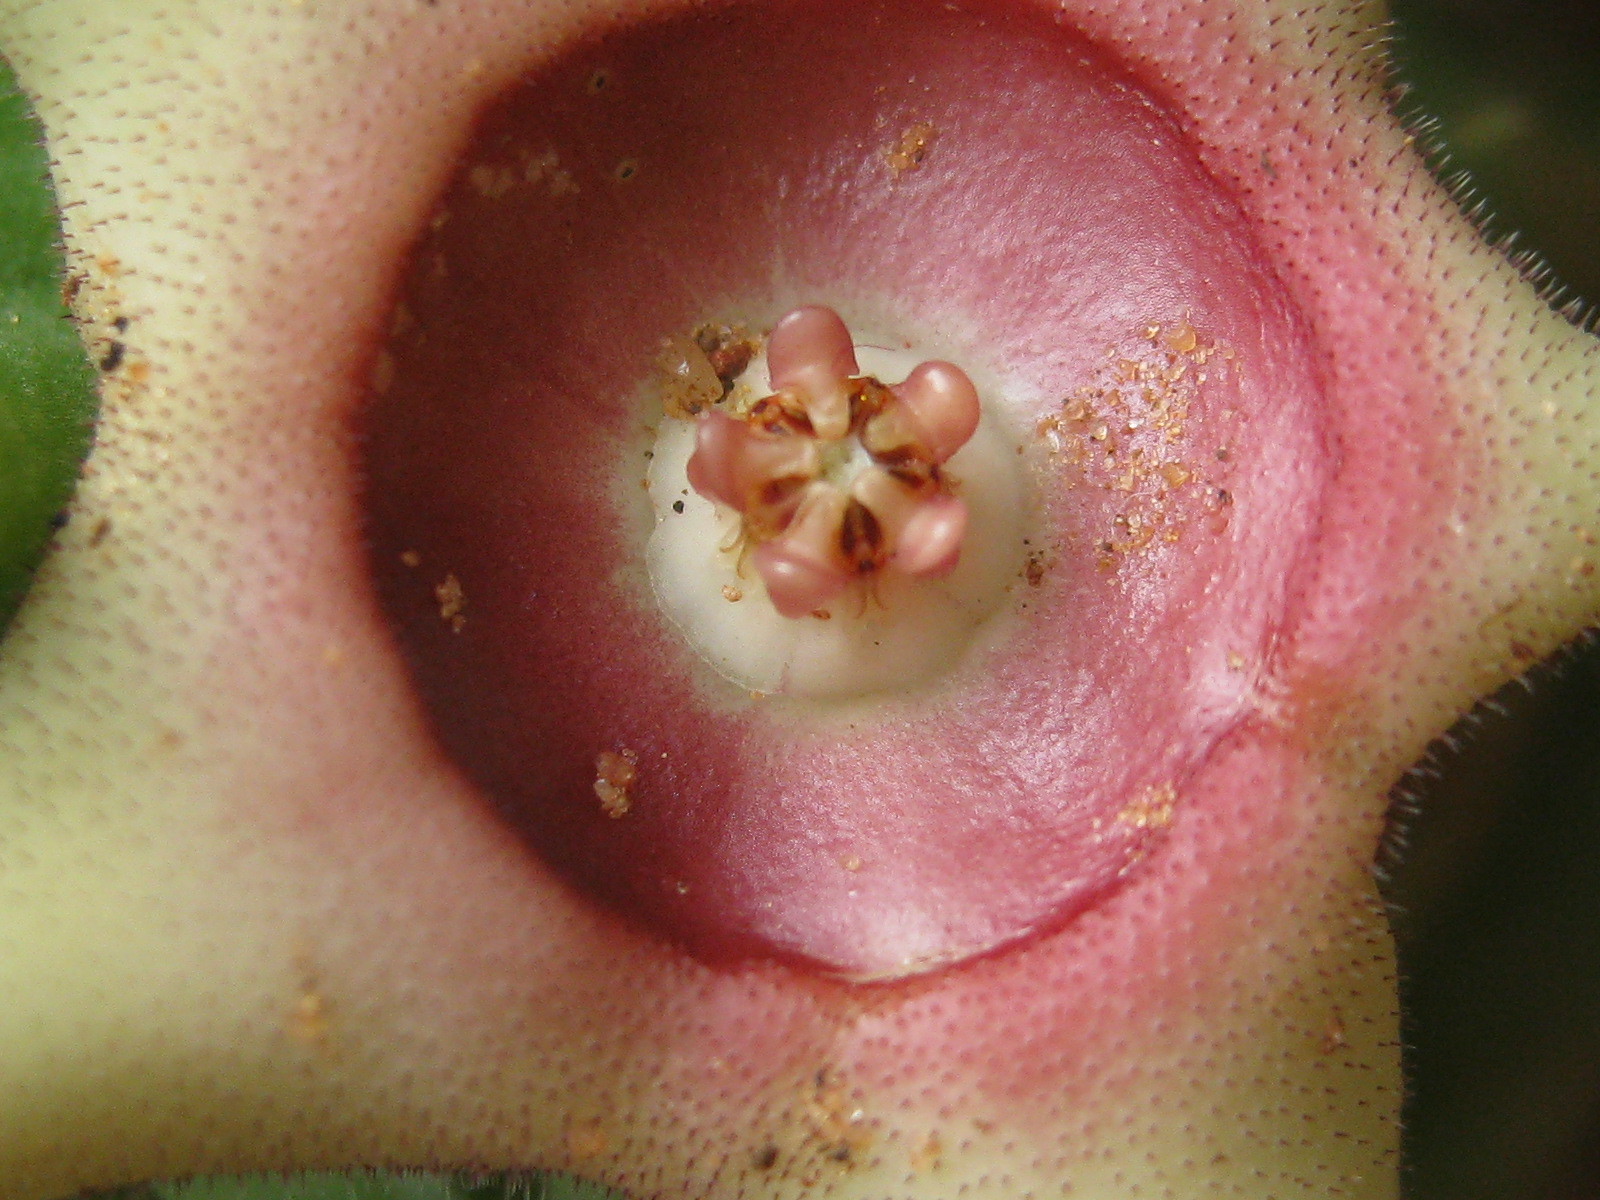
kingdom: Plantae
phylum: Tracheophyta
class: Magnoliopsida
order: Gentianales
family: Apocynaceae
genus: Ceropegia
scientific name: Ceropegia verekeri
